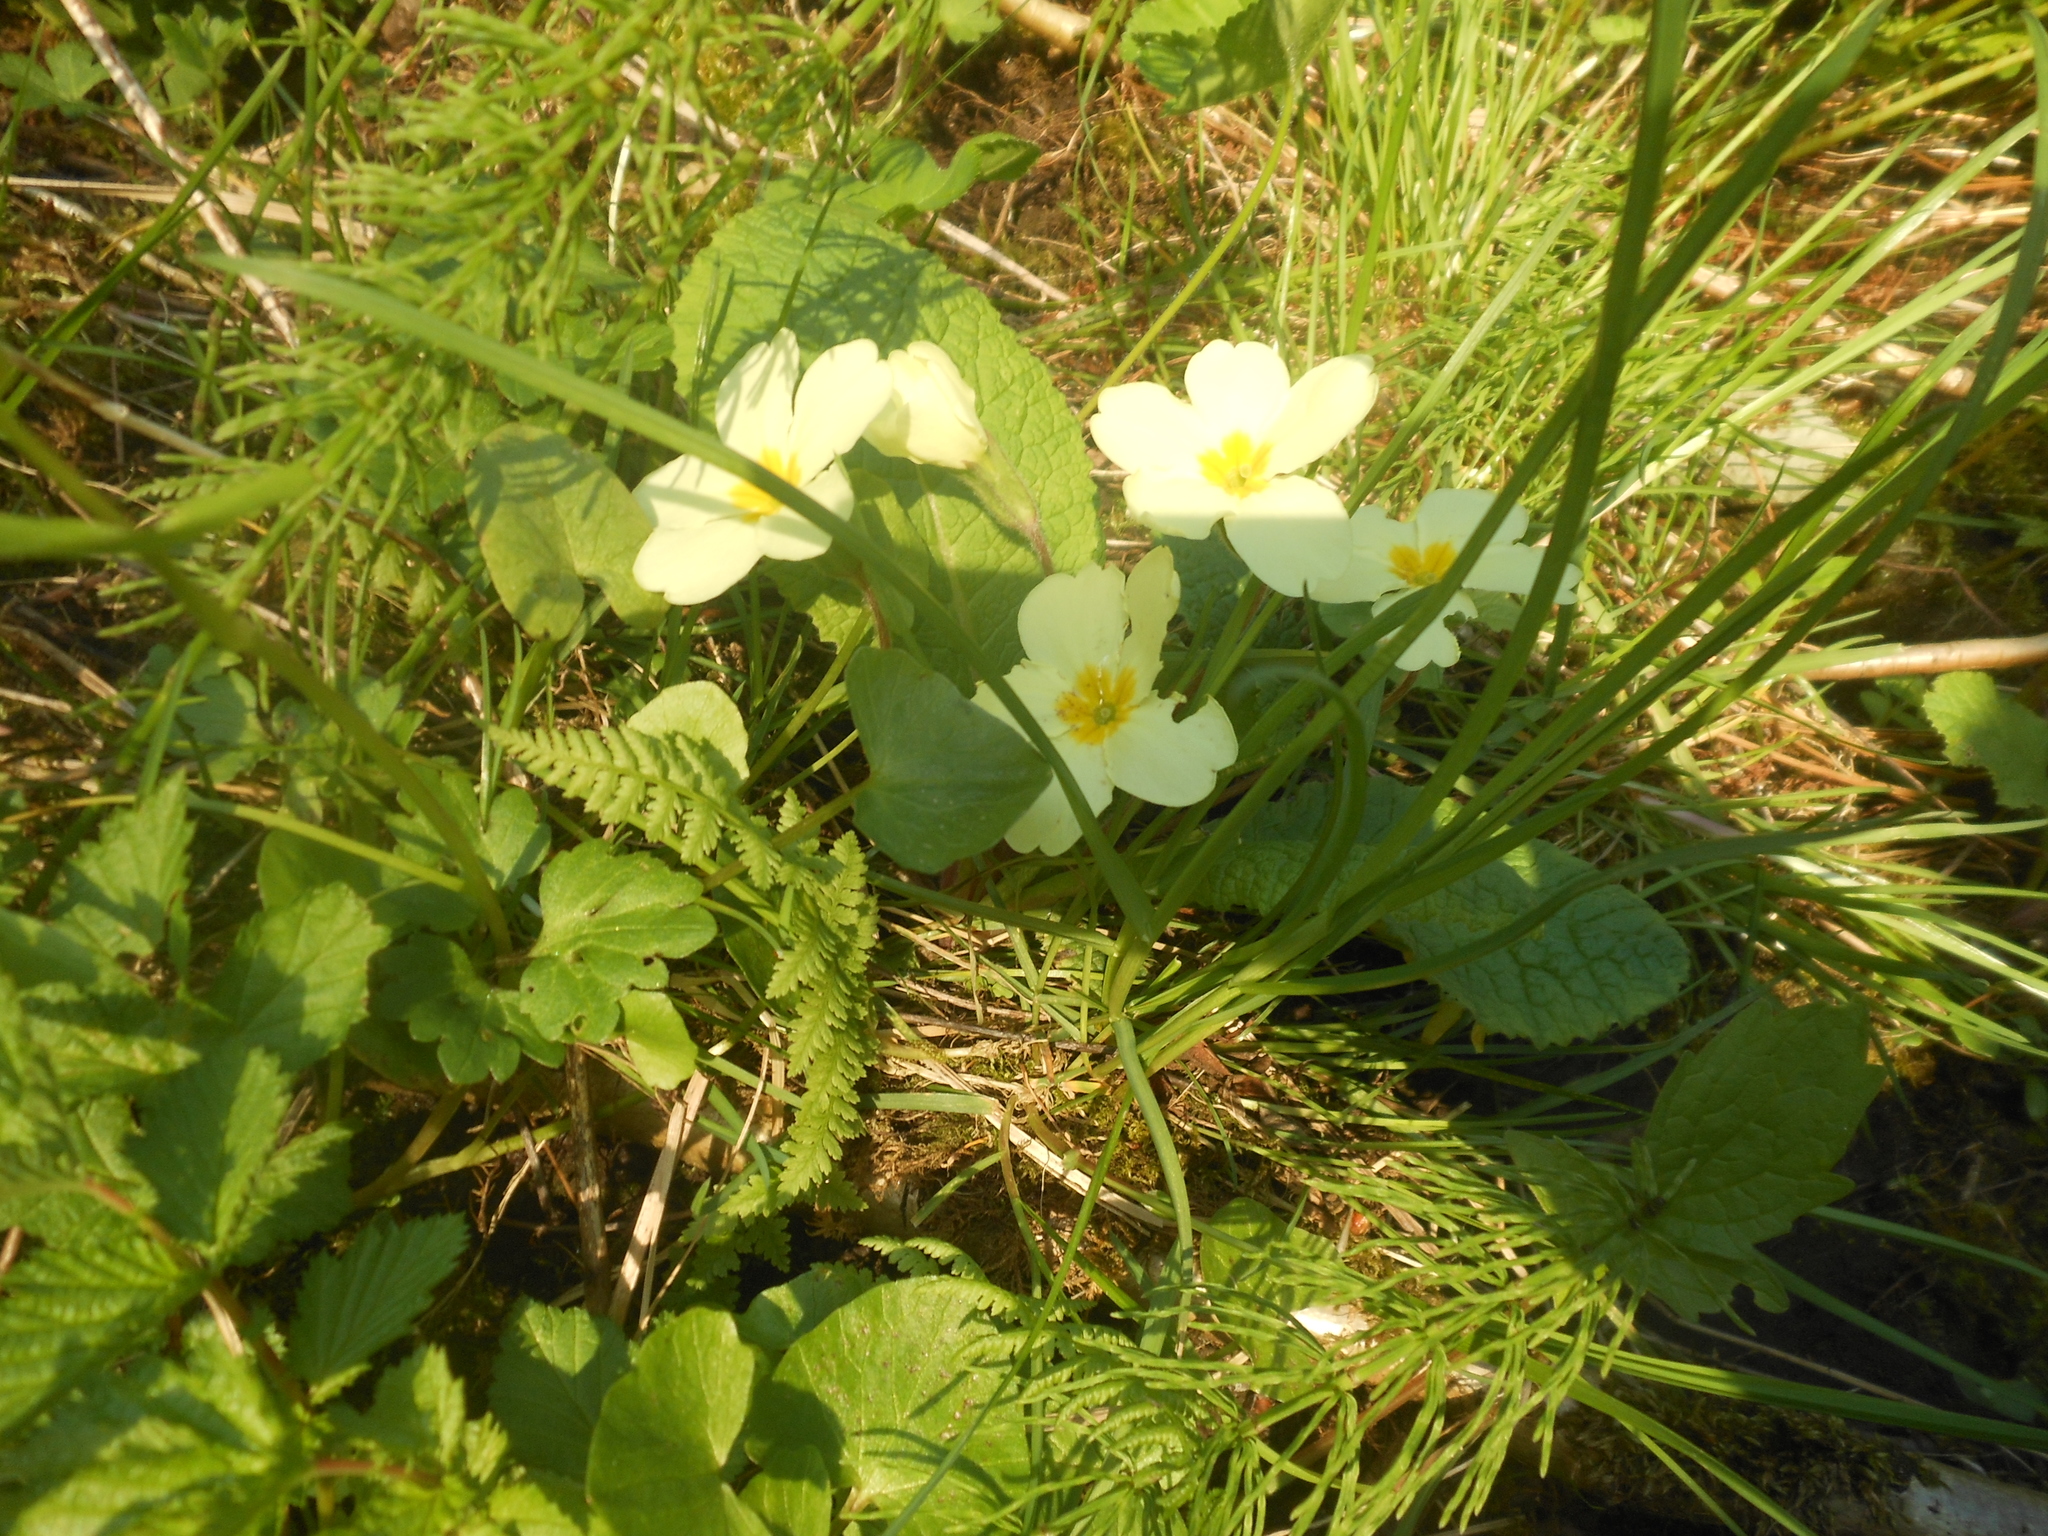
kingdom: Plantae
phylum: Tracheophyta
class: Magnoliopsida
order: Ericales
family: Primulaceae
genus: Primula
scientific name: Primula vulgaris
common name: Primrose
